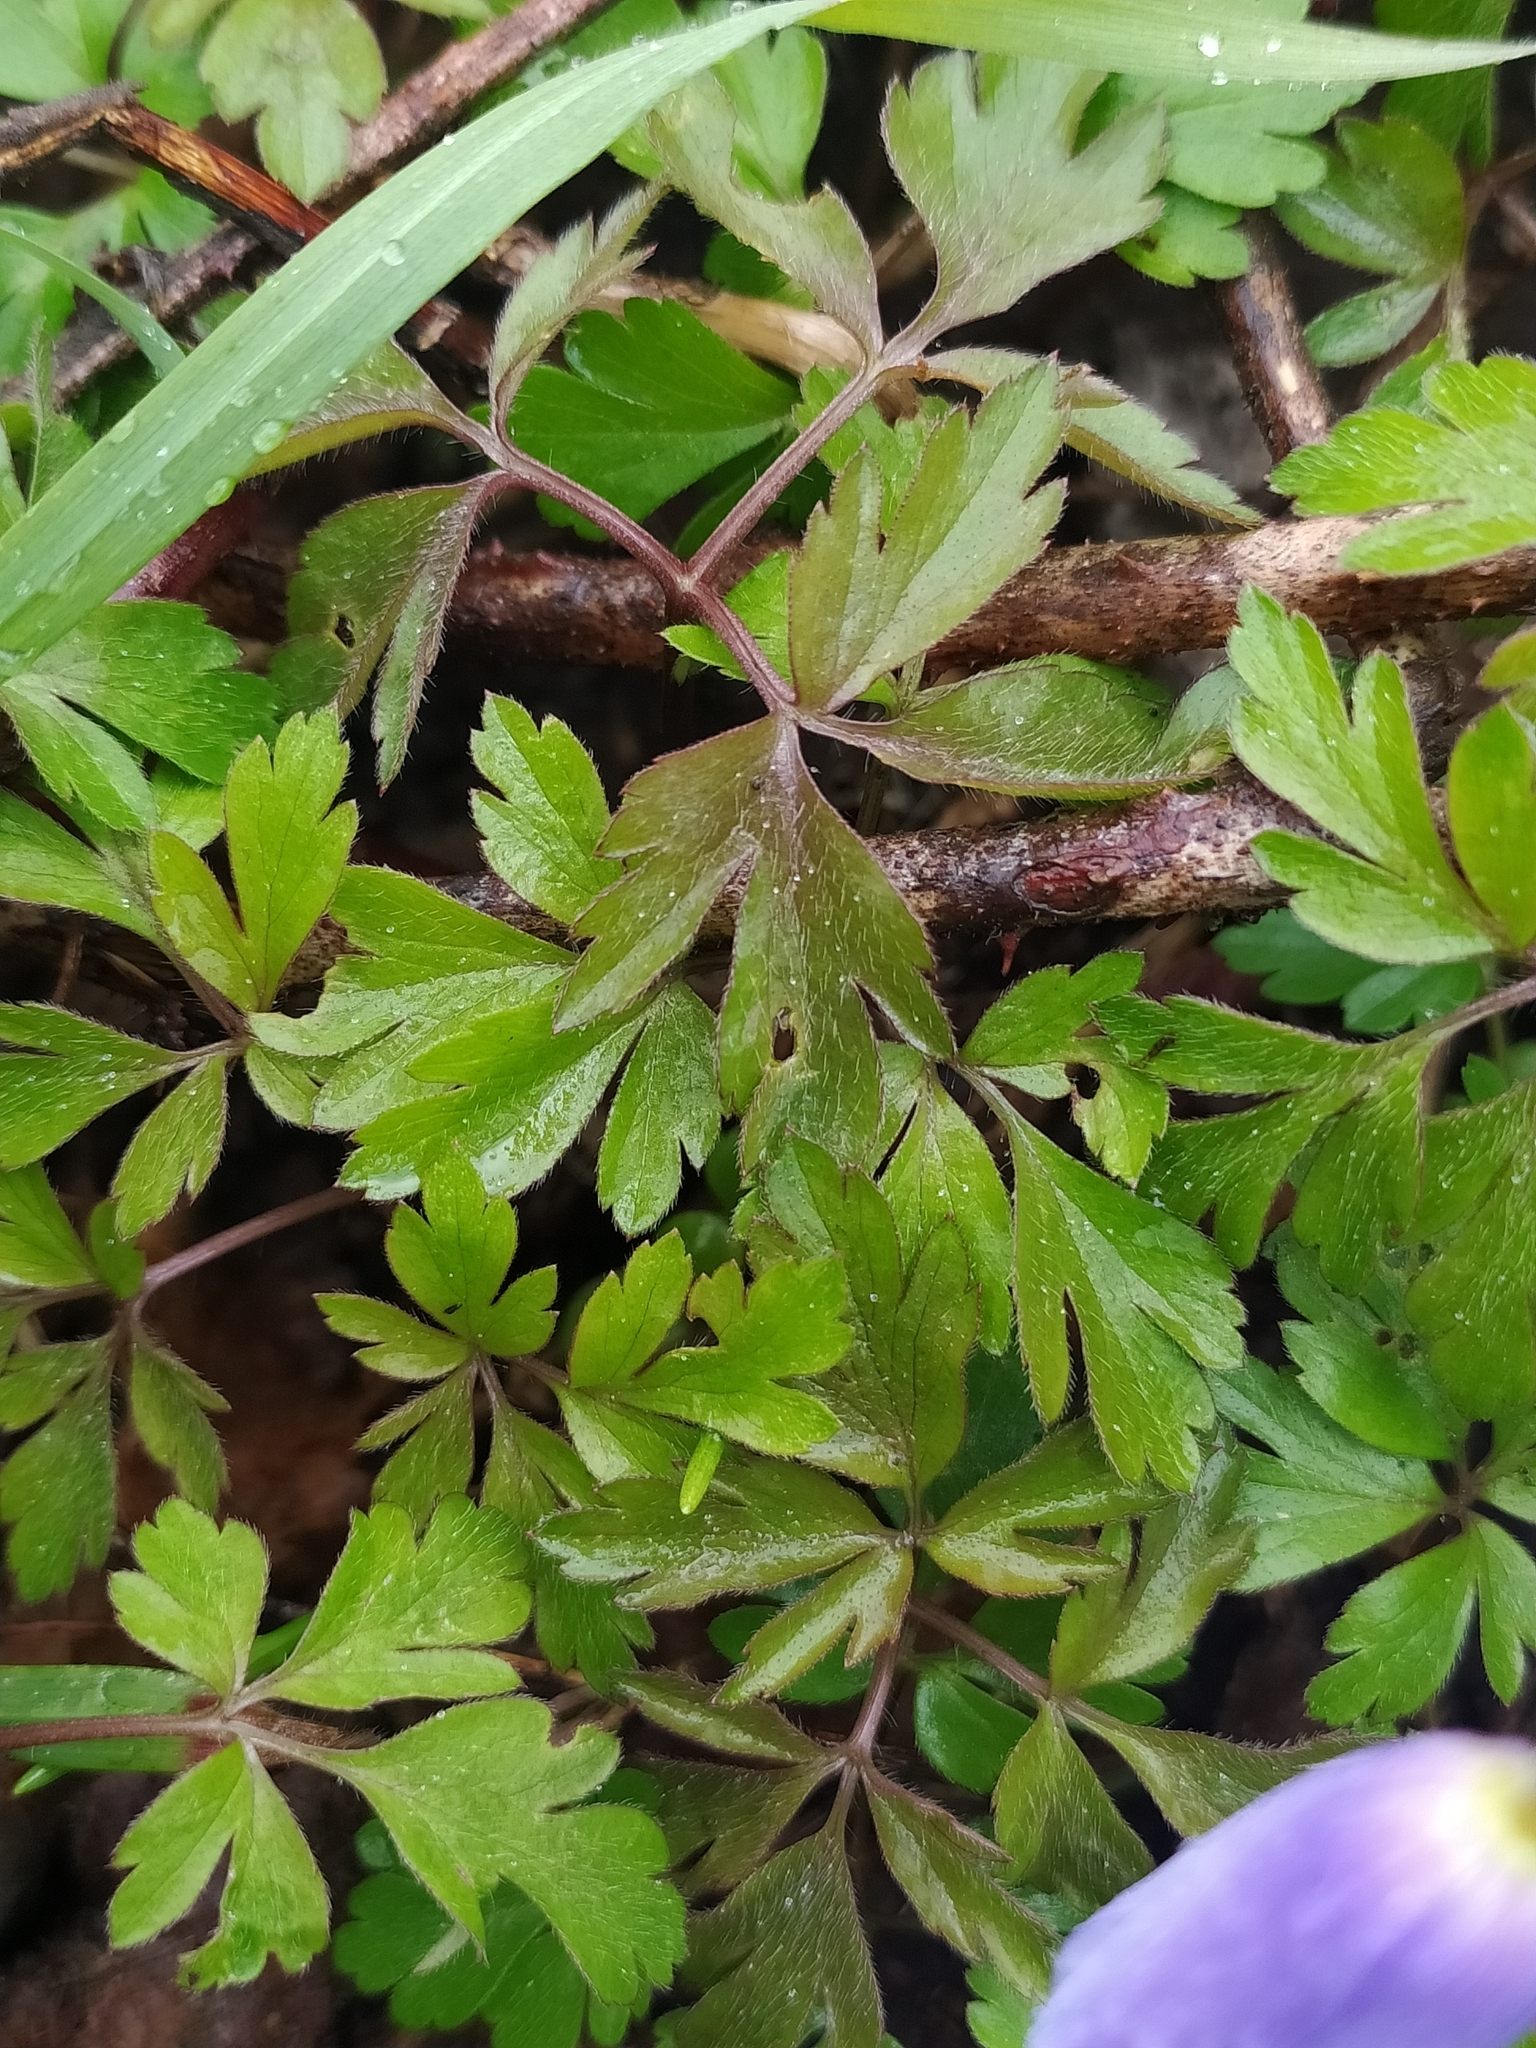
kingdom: Plantae
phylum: Tracheophyta
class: Magnoliopsida
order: Ranunculales
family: Ranunculaceae
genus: Anemone
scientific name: Anemone apennina
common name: Blue anemone
